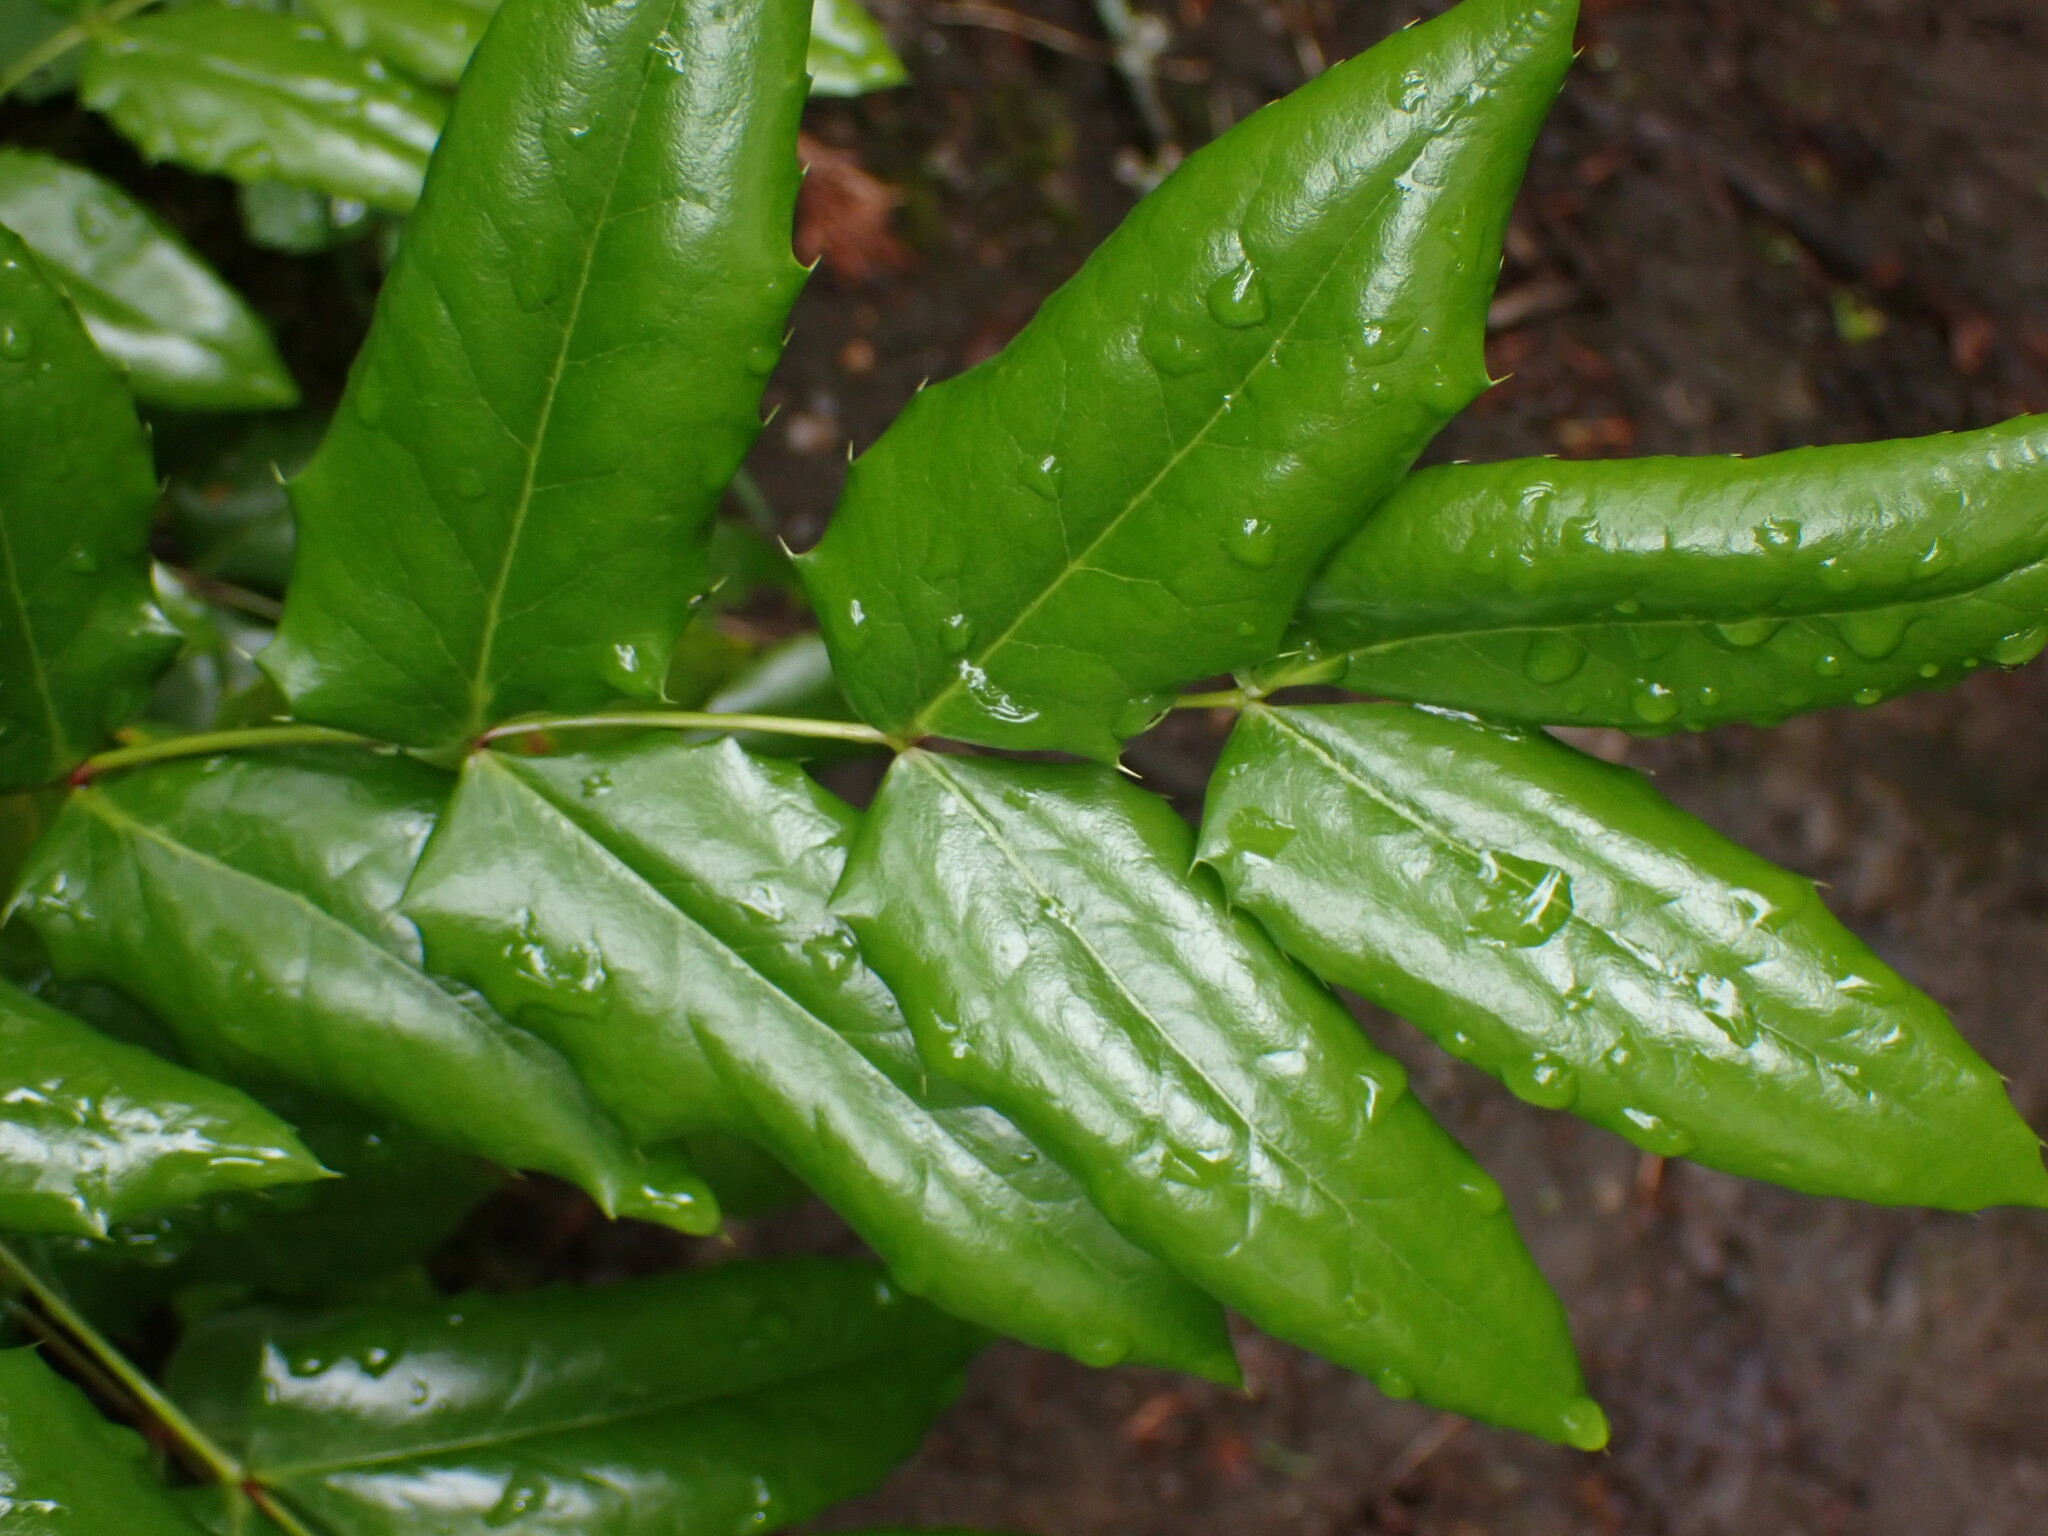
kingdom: Plantae
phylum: Tracheophyta
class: Magnoliopsida
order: Ranunculales
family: Berberidaceae
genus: Mahonia
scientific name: Mahonia aquifolium
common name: Oregon-grape
